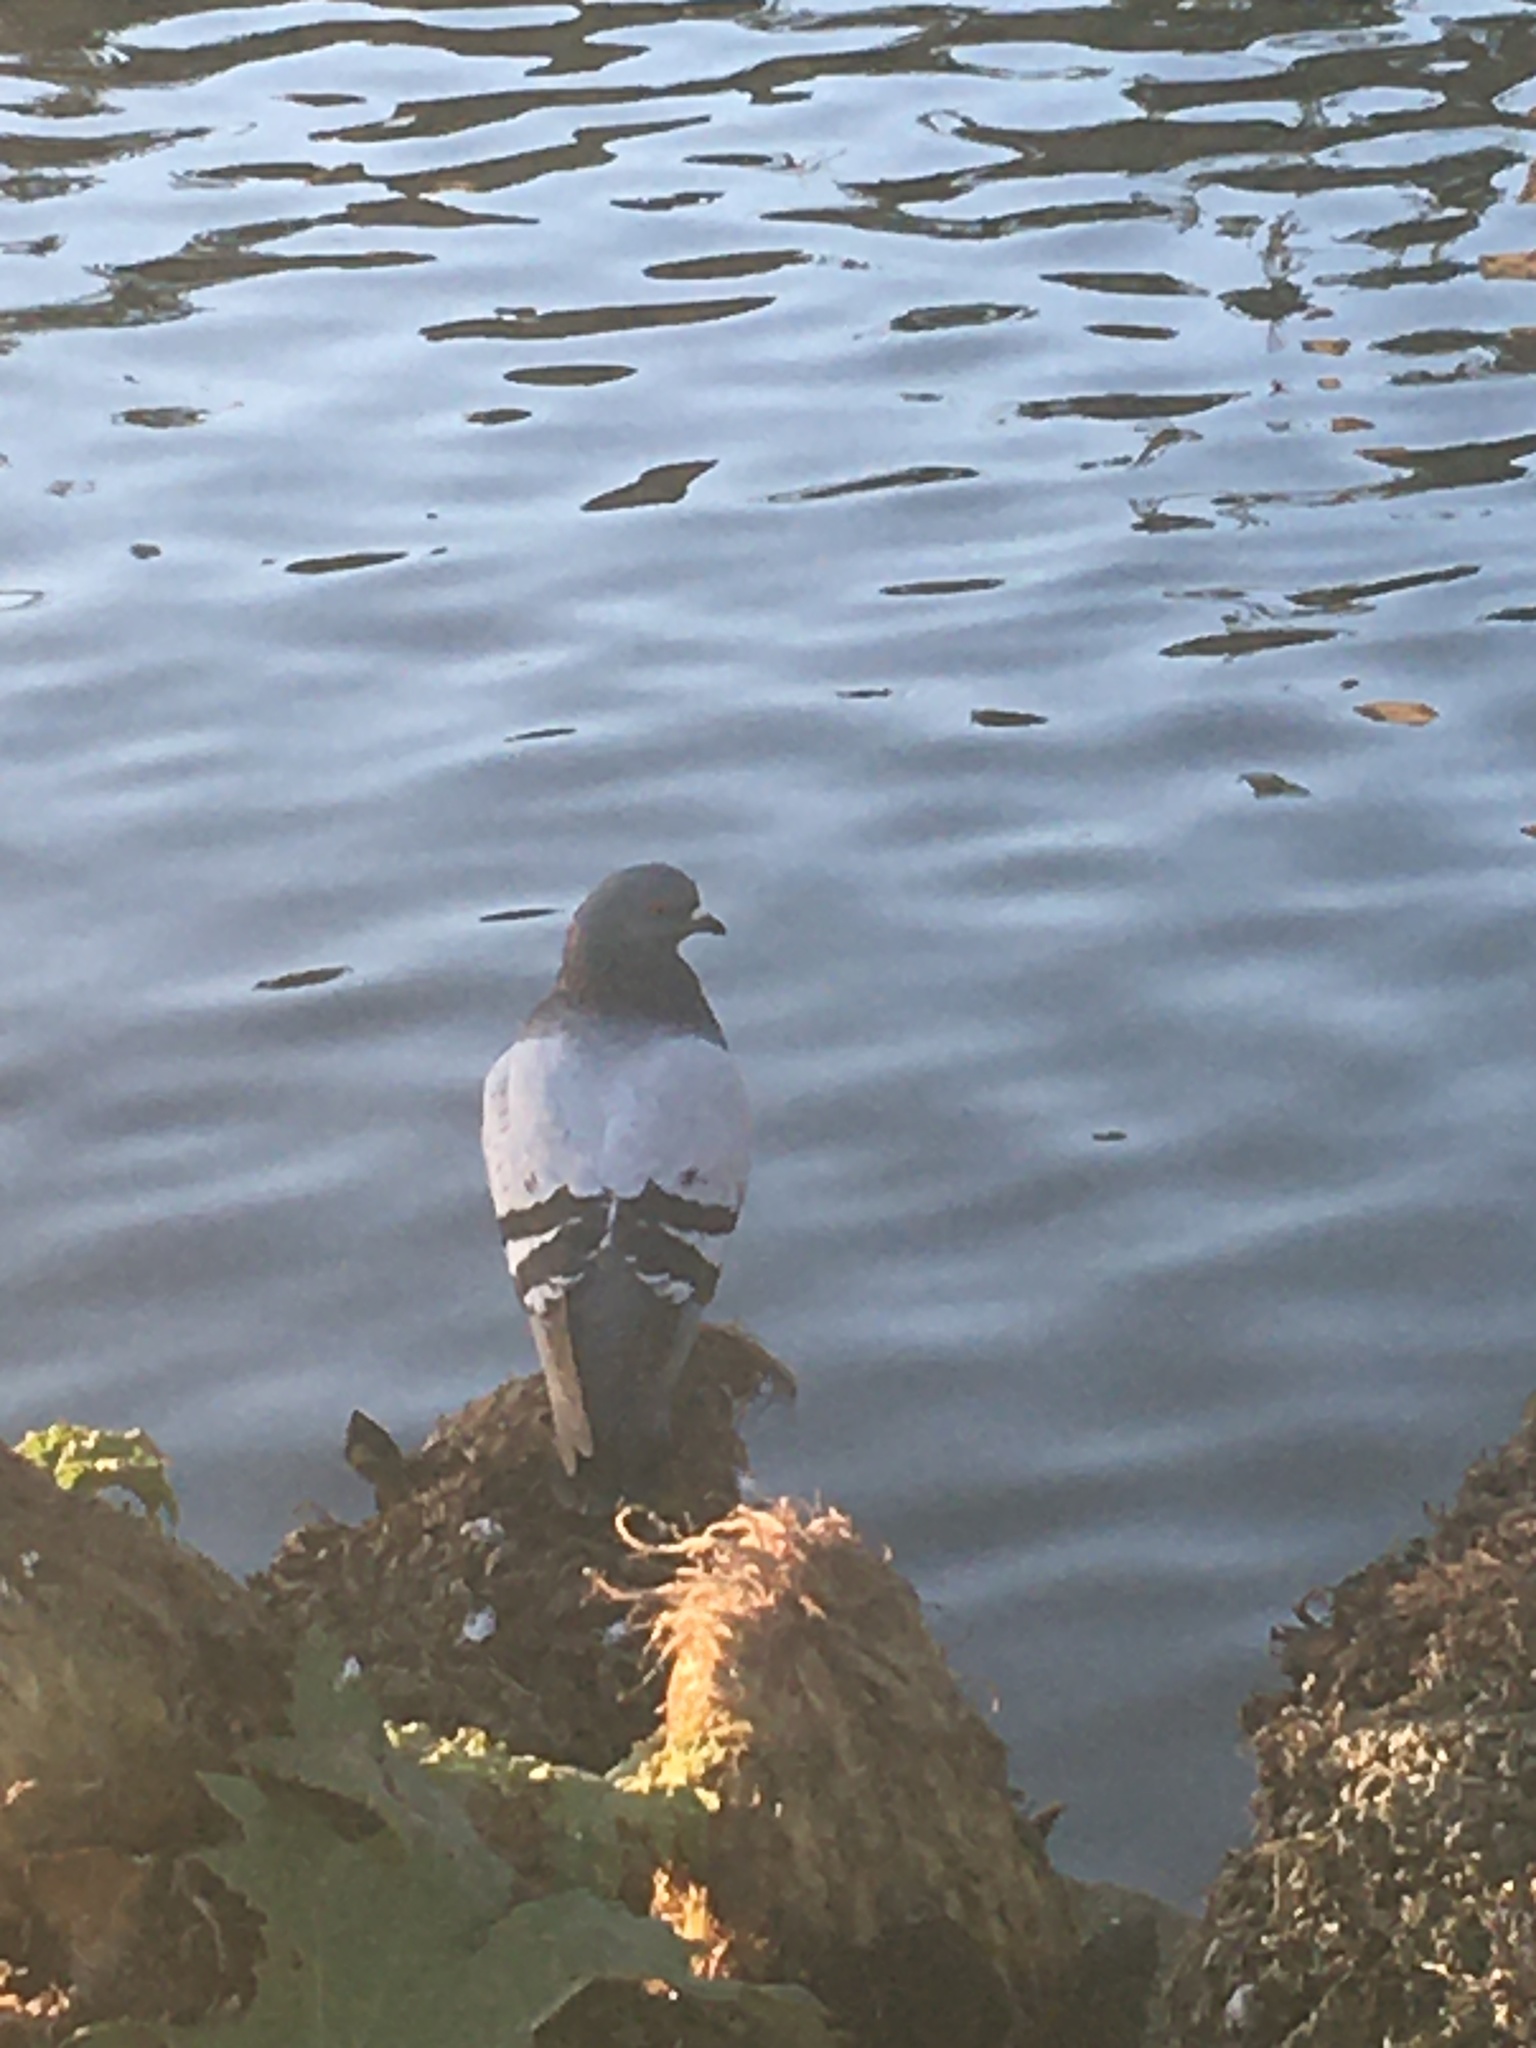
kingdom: Animalia
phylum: Chordata
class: Aves
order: Columbiformes
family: Columbidae
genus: Columba
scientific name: Columba livia
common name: Rock pigeon
